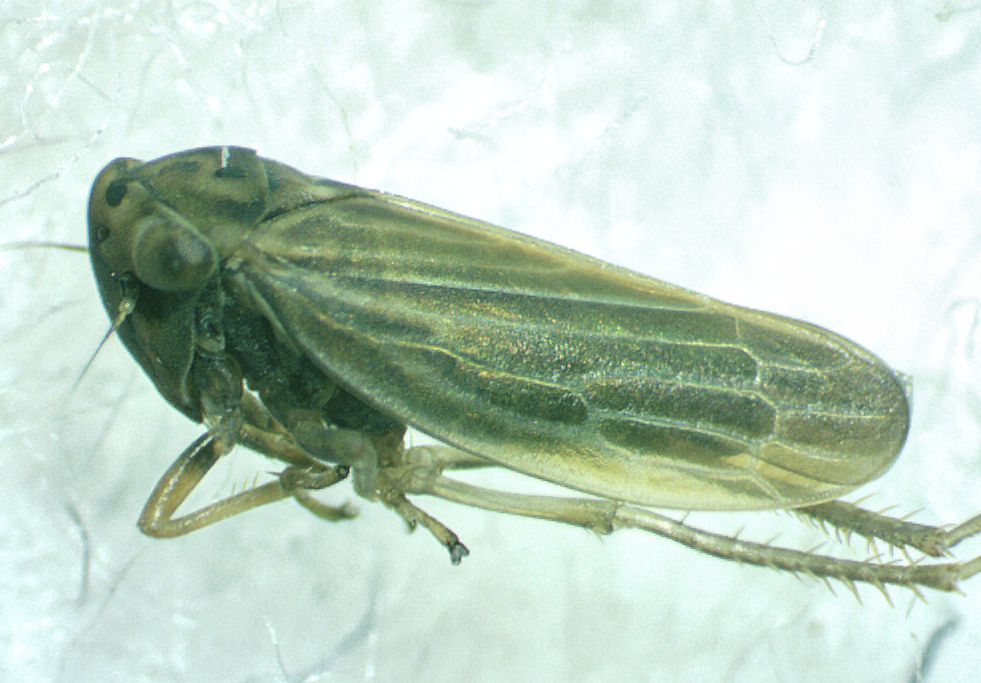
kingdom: Animalia
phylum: Arthropoda
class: Insecta
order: Hemiptera
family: Cicadellidae
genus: Agallia
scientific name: Agallia constricta
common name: The constricted leafhopper
